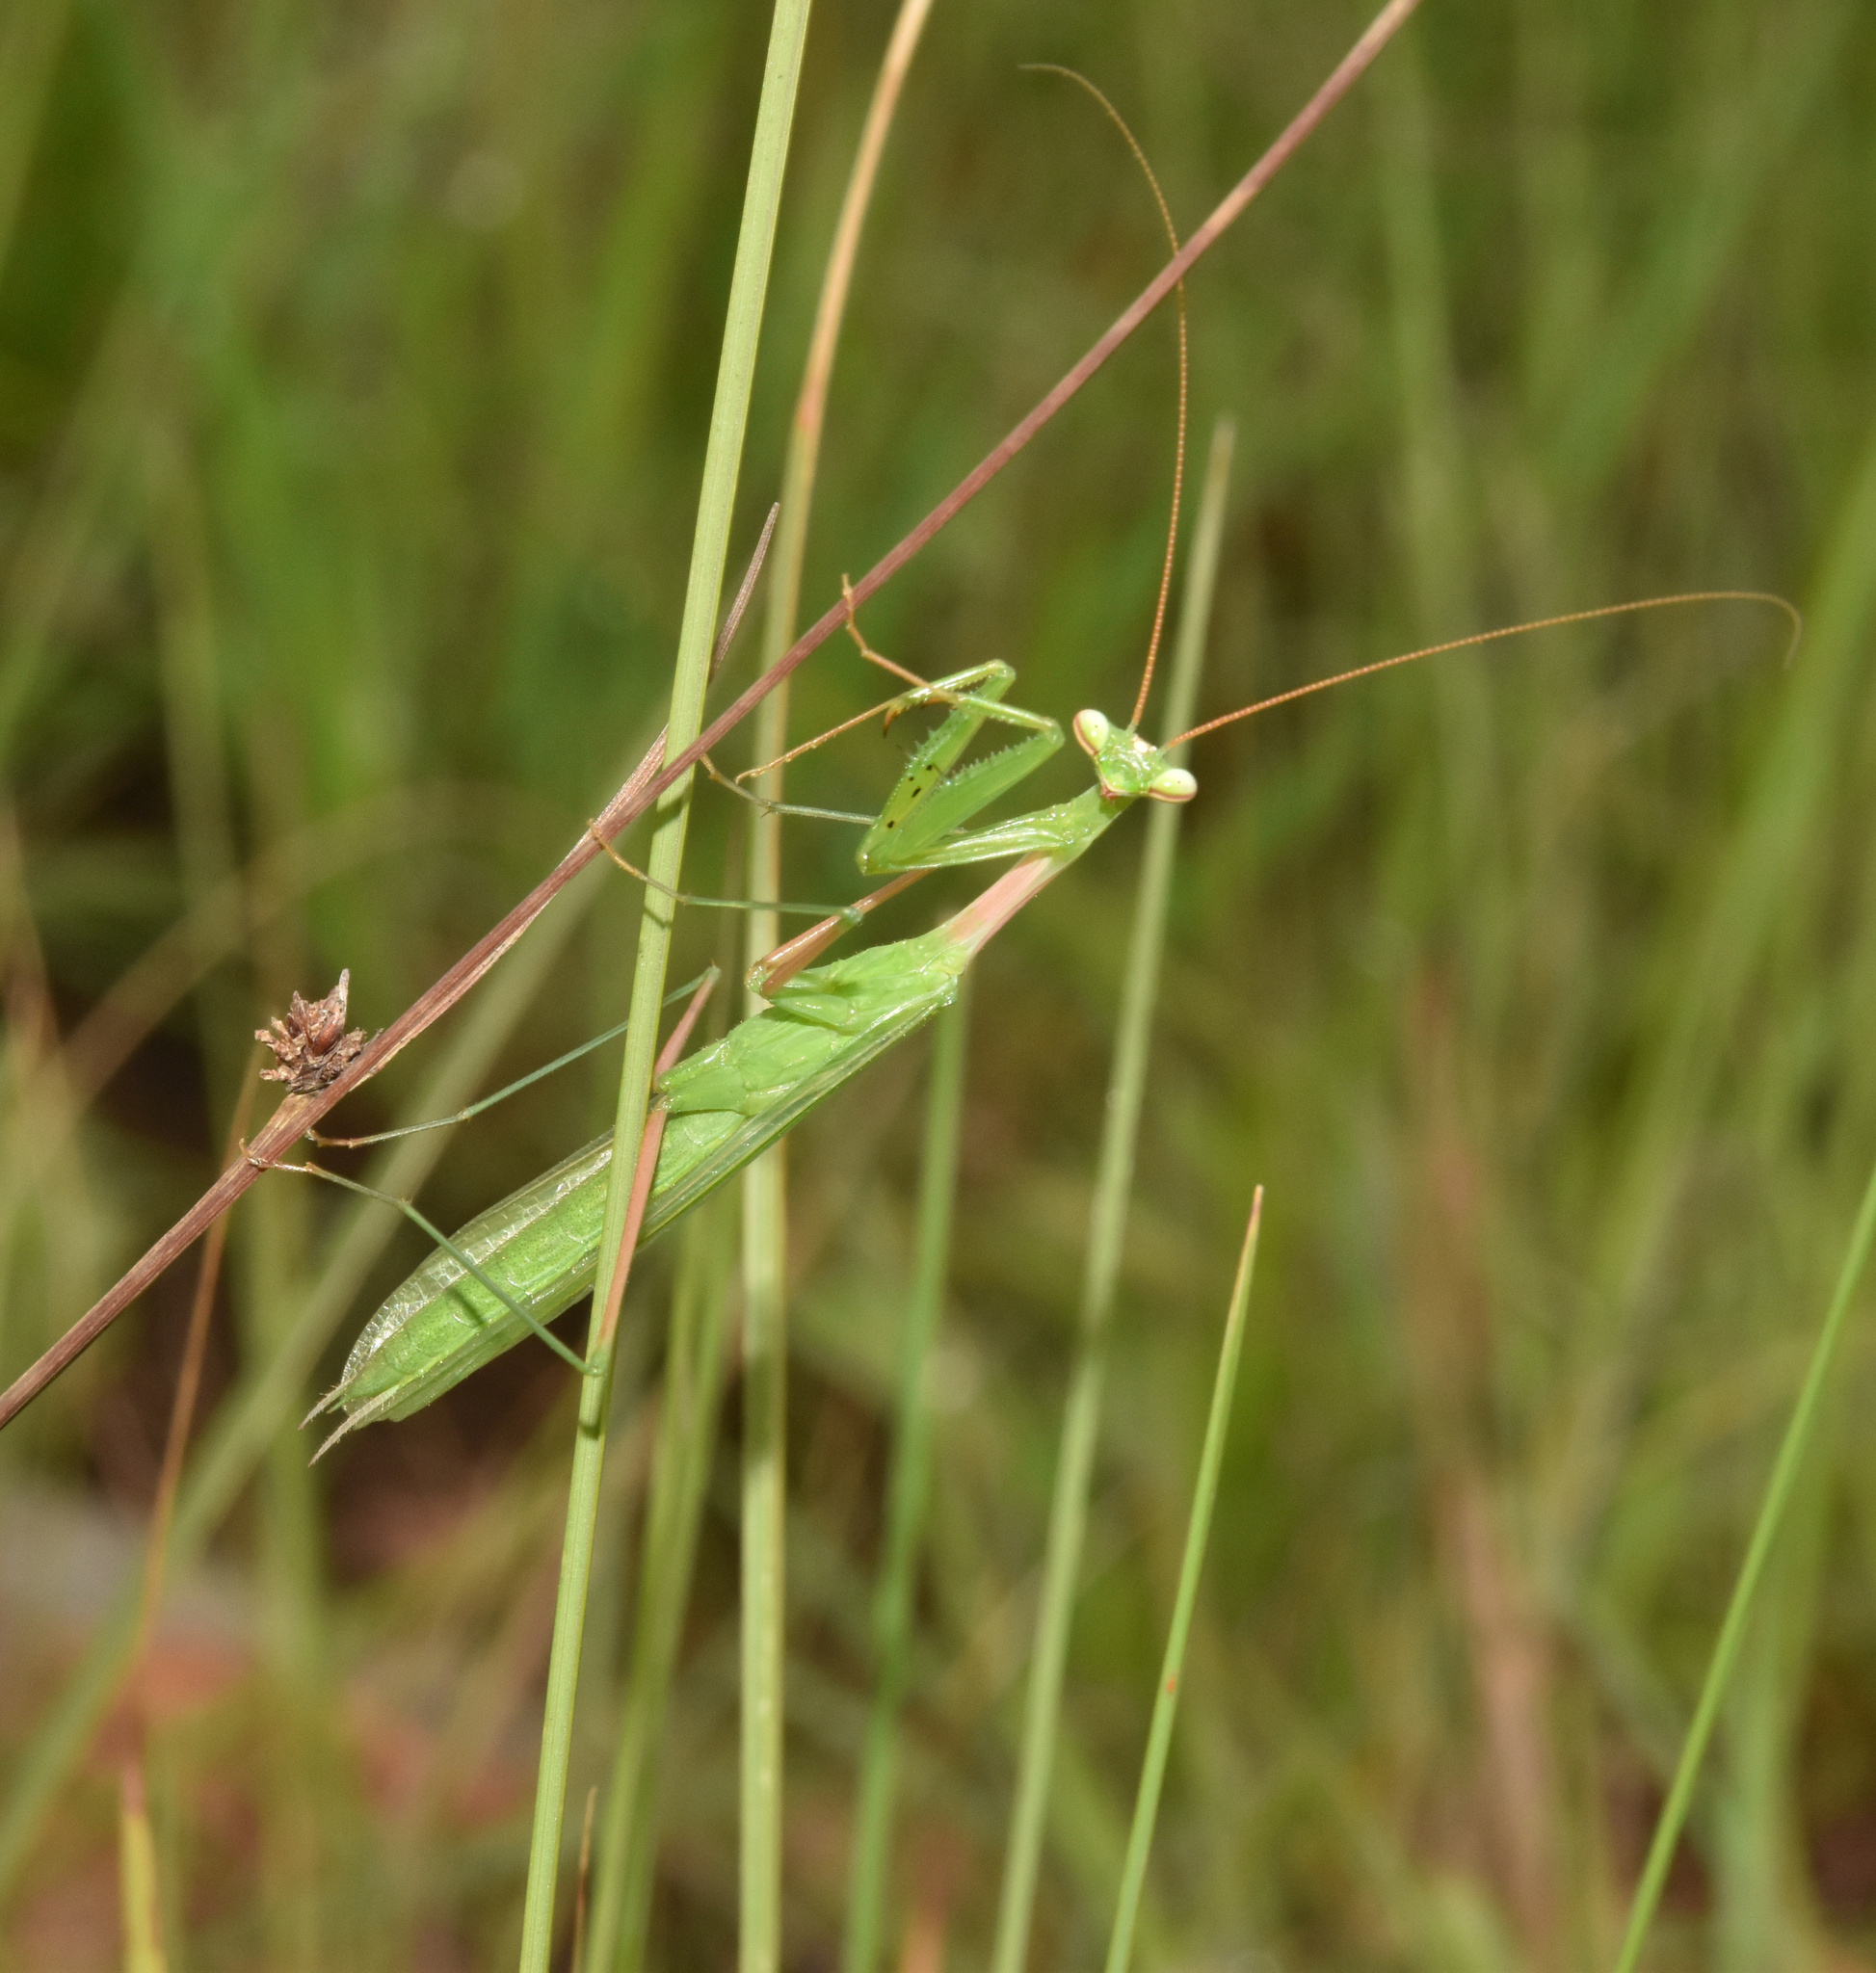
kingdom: Animalia
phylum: Arthropoda
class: Insecta
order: Mantodea
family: Miomantidae
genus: Miomantis
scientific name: Miomantis caffra
